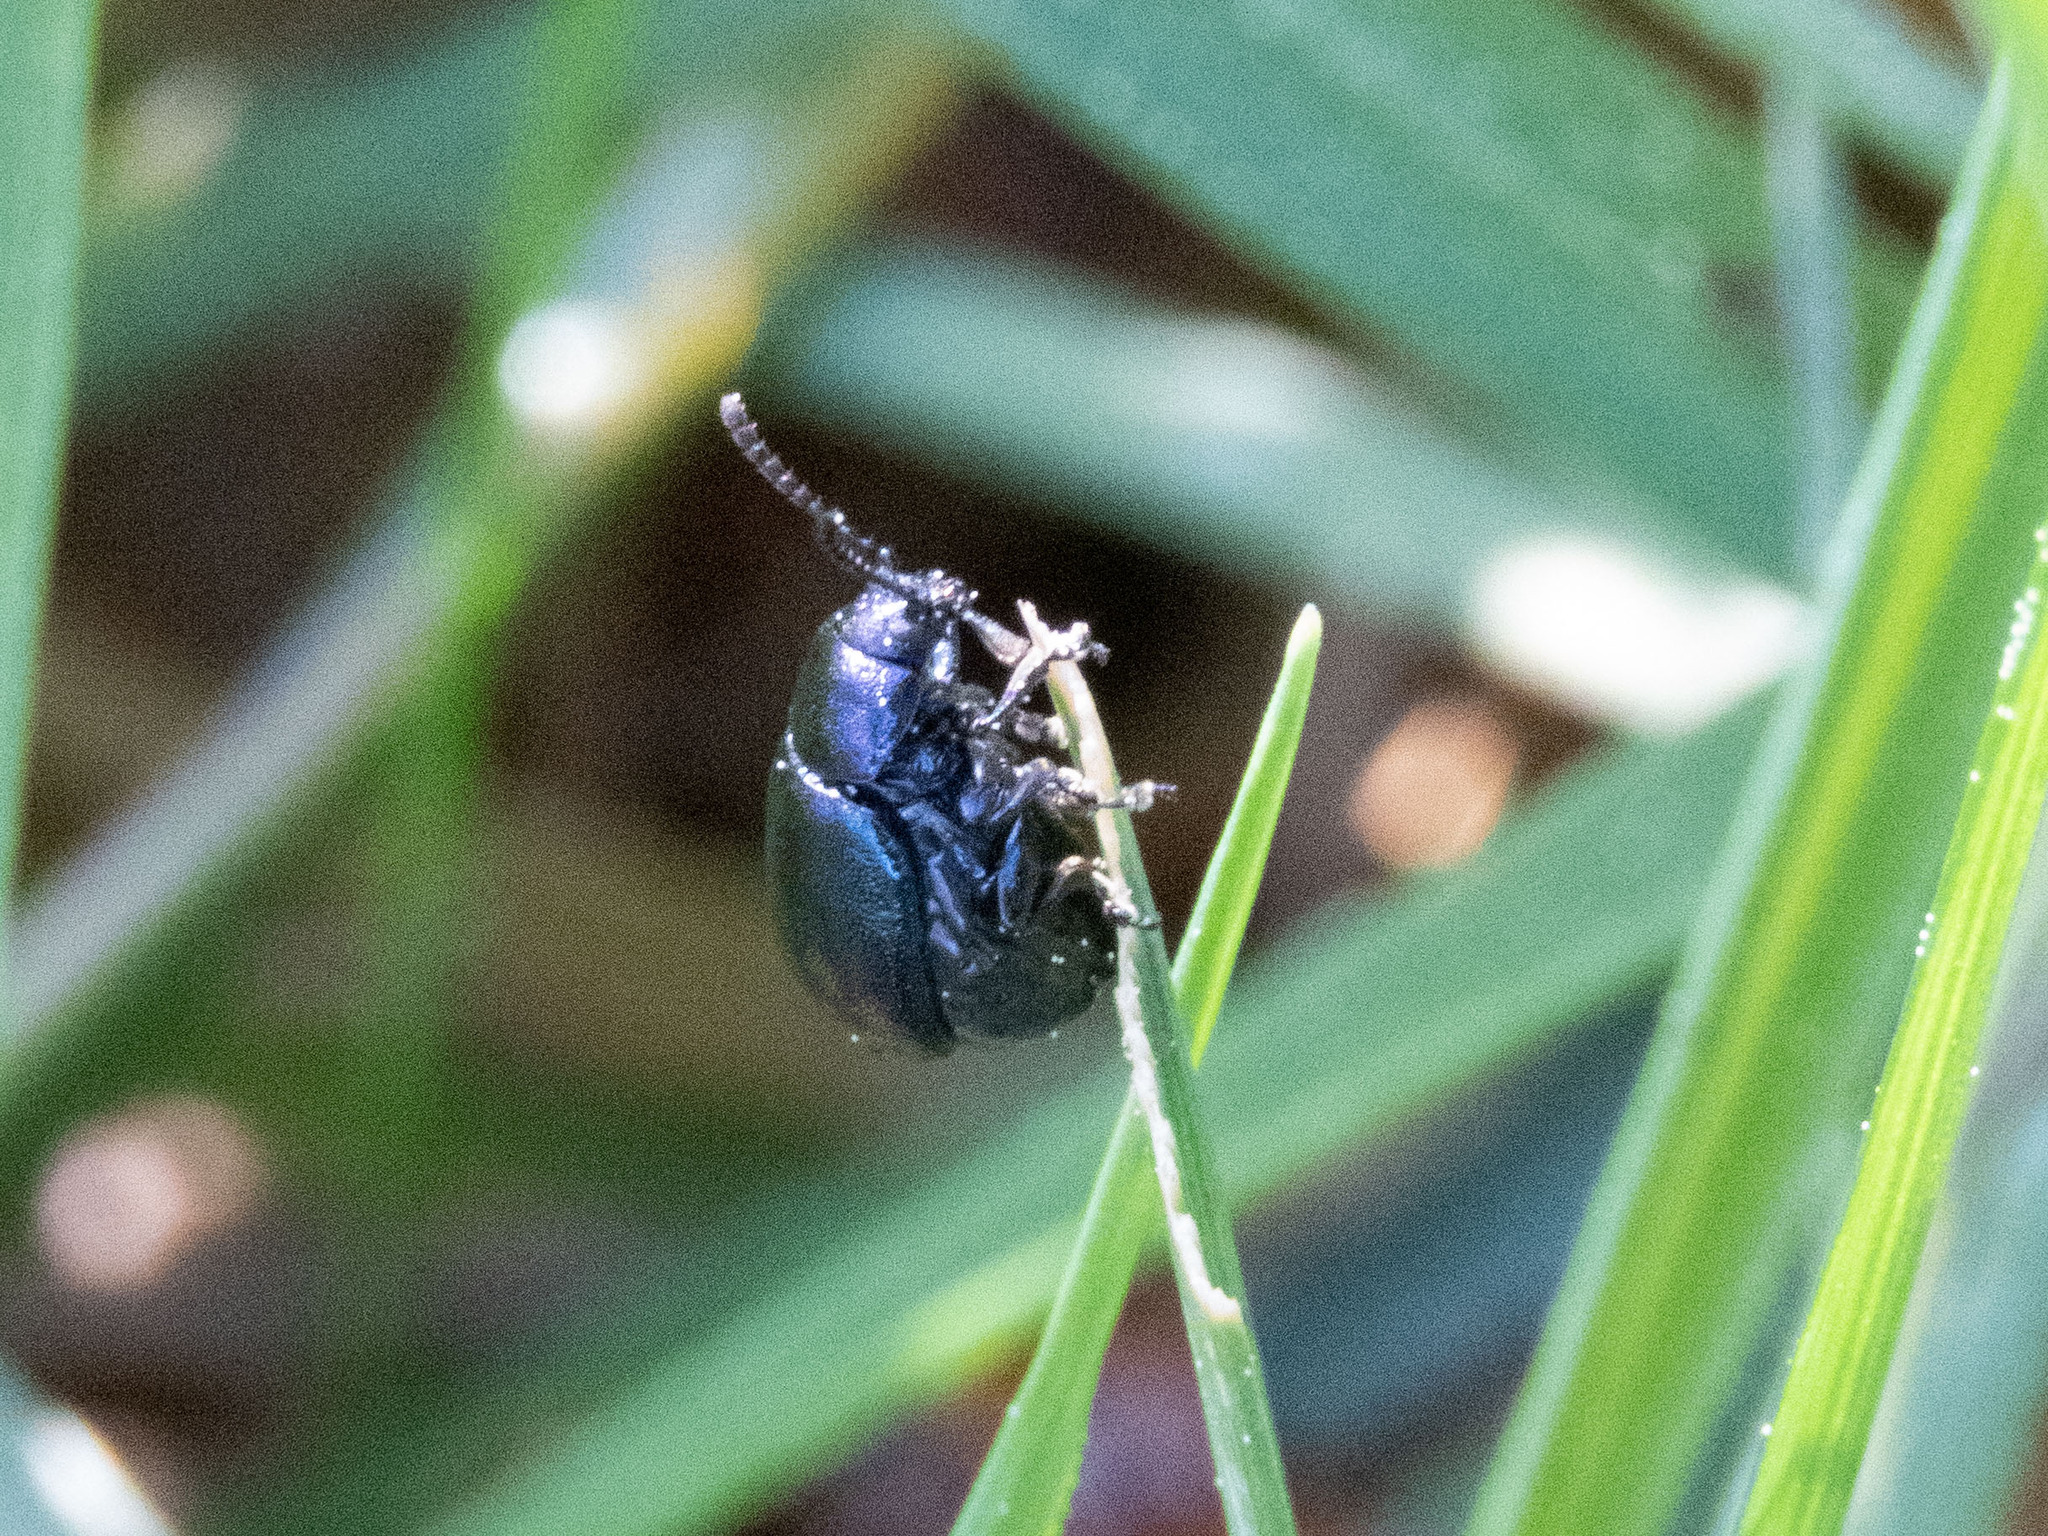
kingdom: Animalia
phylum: Arthropoda
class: Insecta
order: Coleoptera
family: Chrysomelidae
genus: Gastrophysa
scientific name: Gastrophysa janthina
